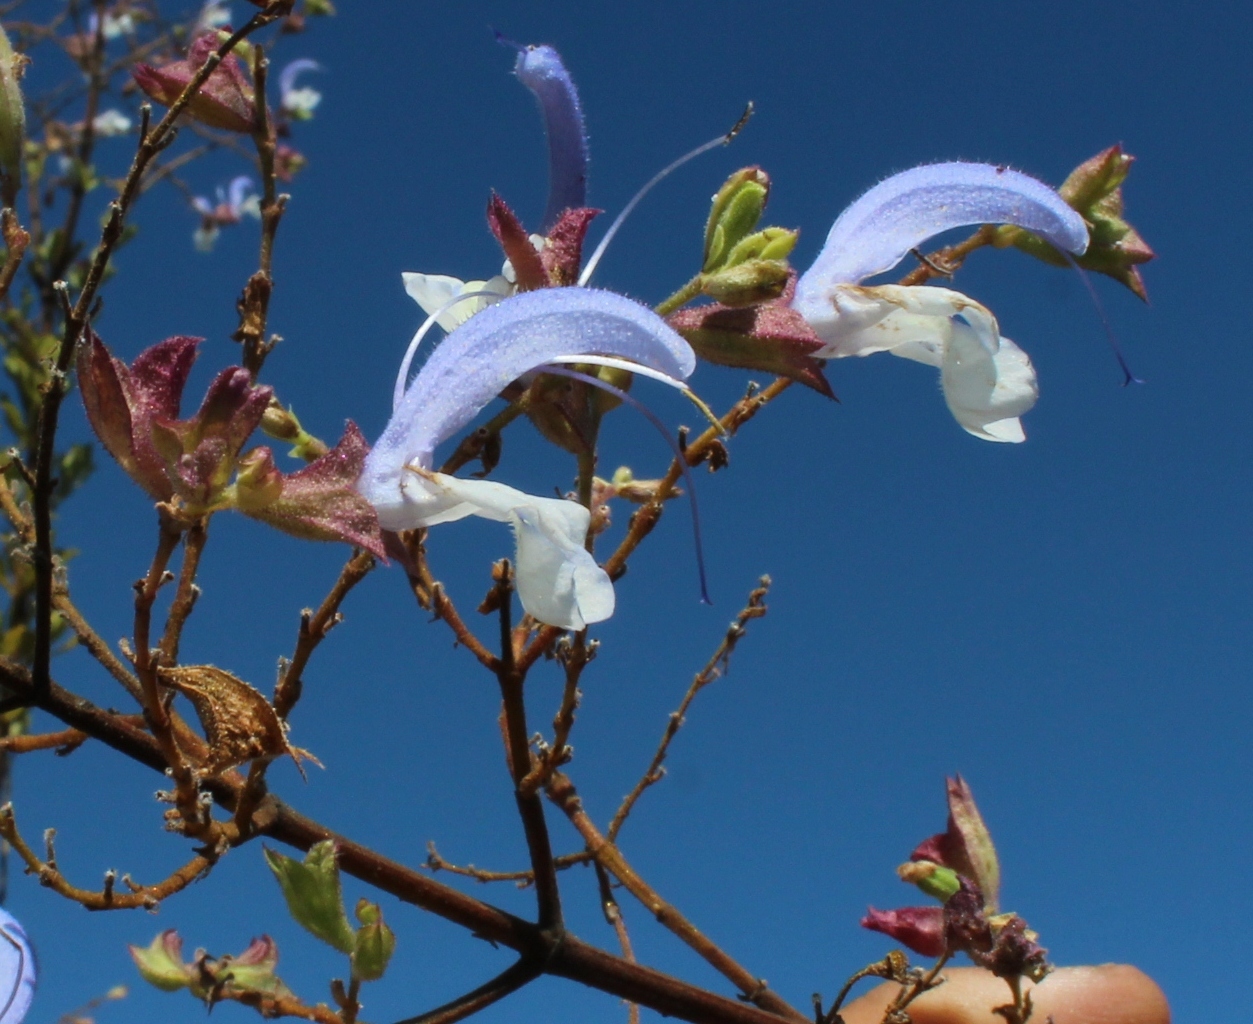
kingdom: Plantae
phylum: Tracheophyta
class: Magnoliopsida
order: Lamiales
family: Lamiaceae
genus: Salvia
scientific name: Salvia chamelaeagnea
